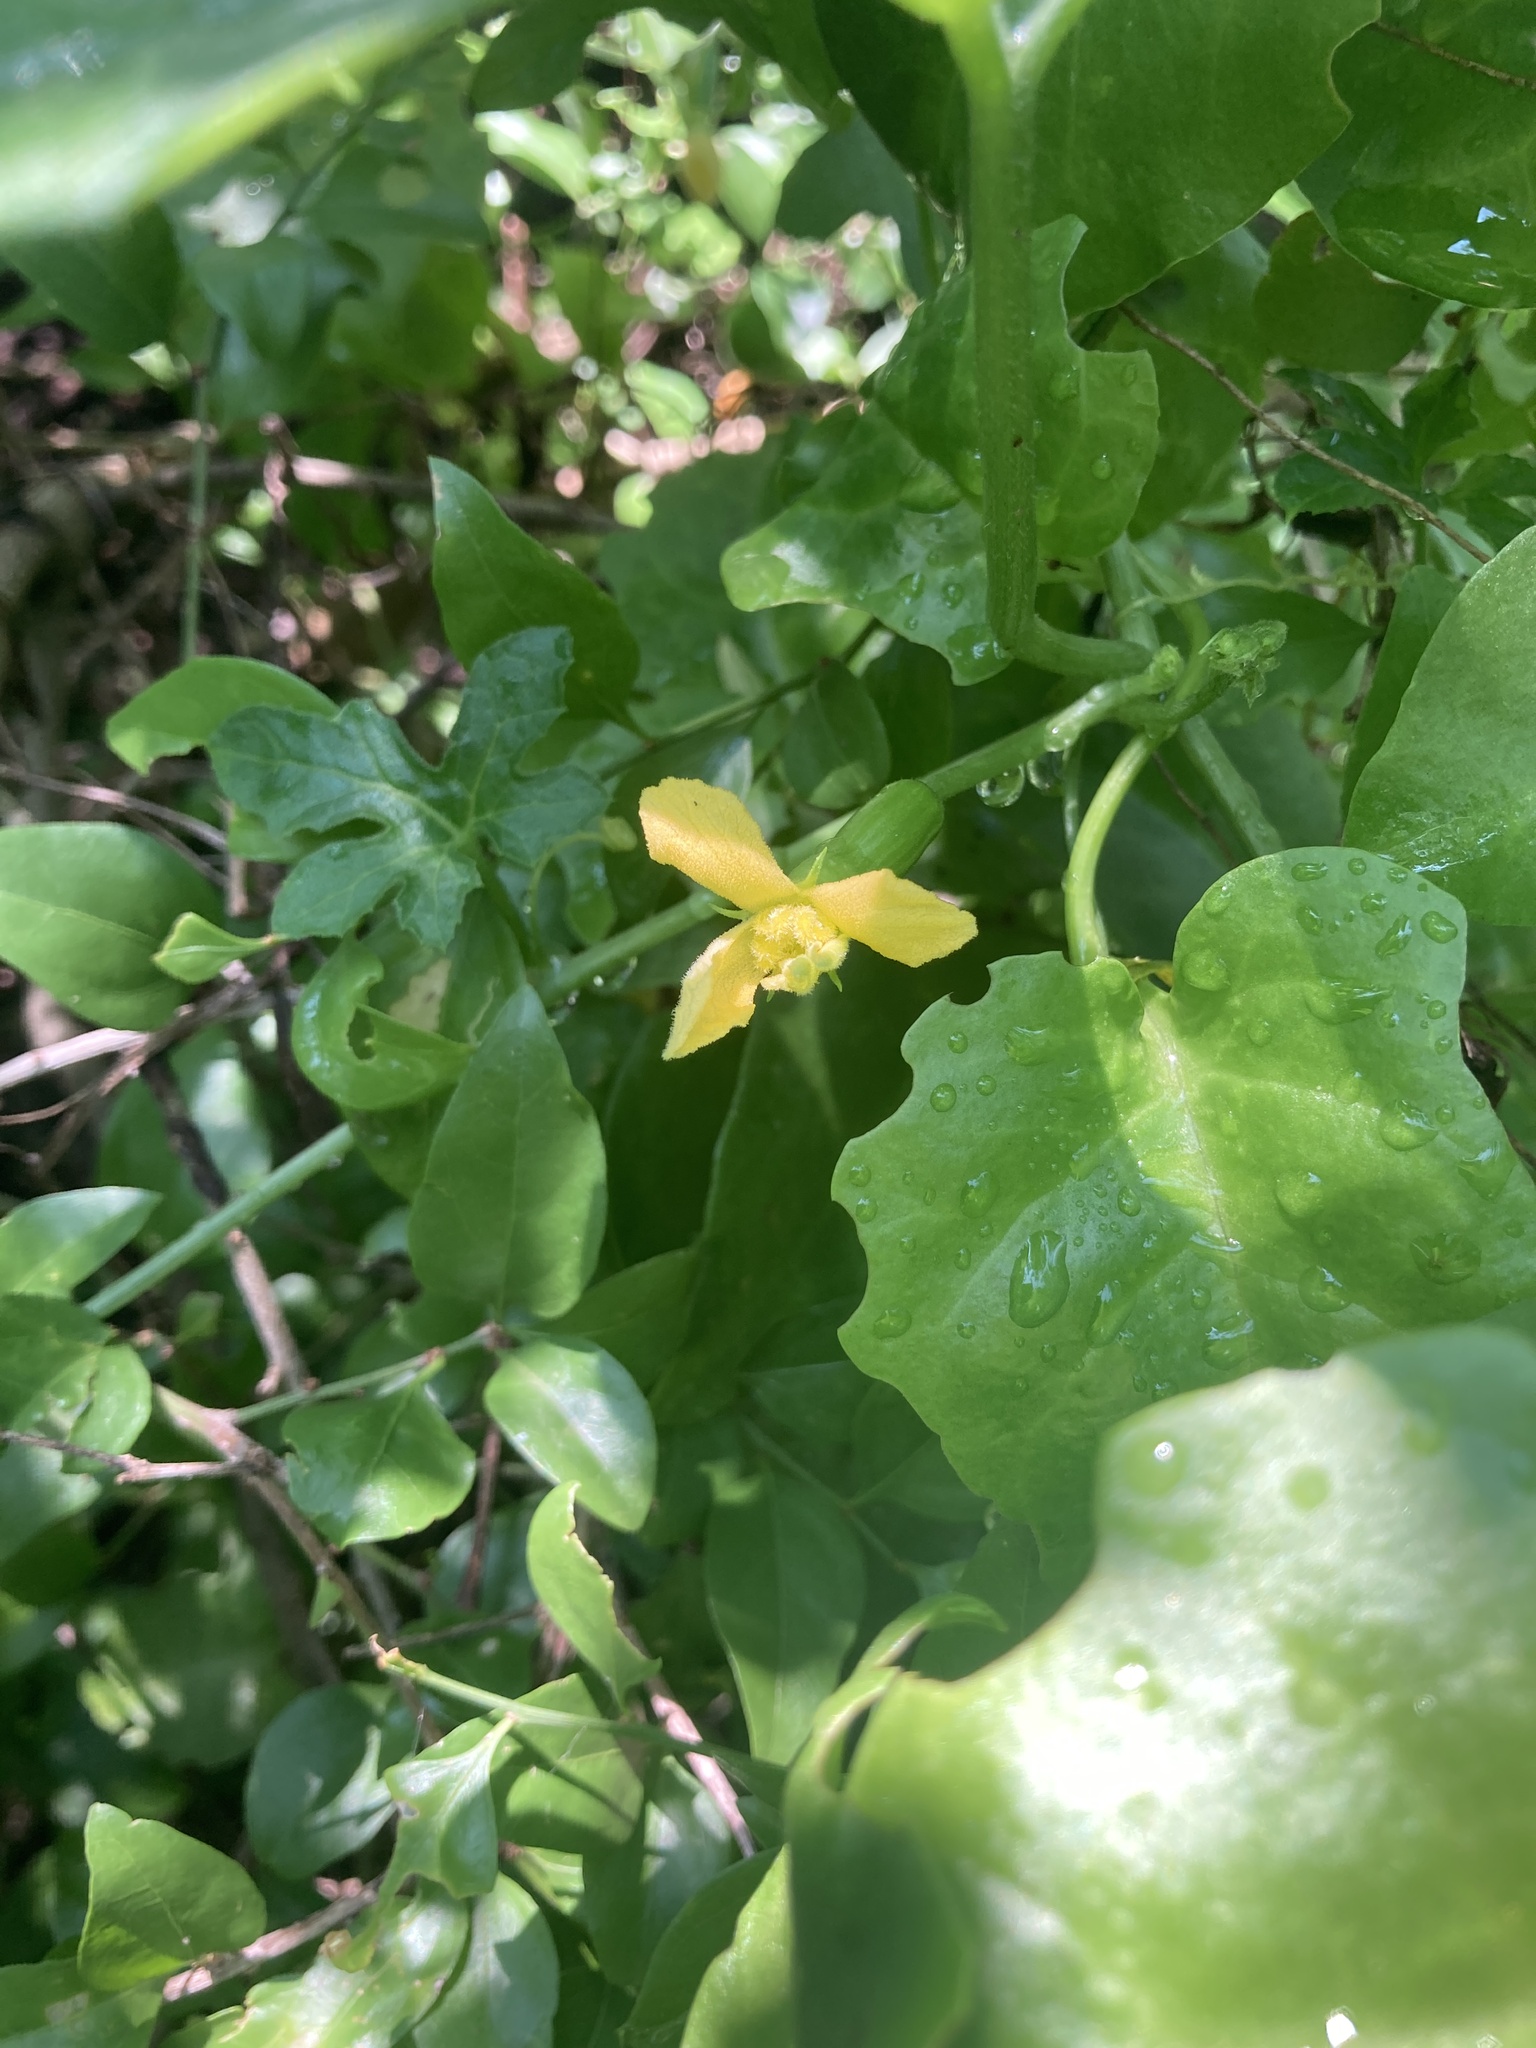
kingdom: Plantae
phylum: Tracheophyta
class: Magnoliopsida
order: Cucurbitales
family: Cucurbitaceae
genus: Cucurbitella
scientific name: Cucurbitella asperata
